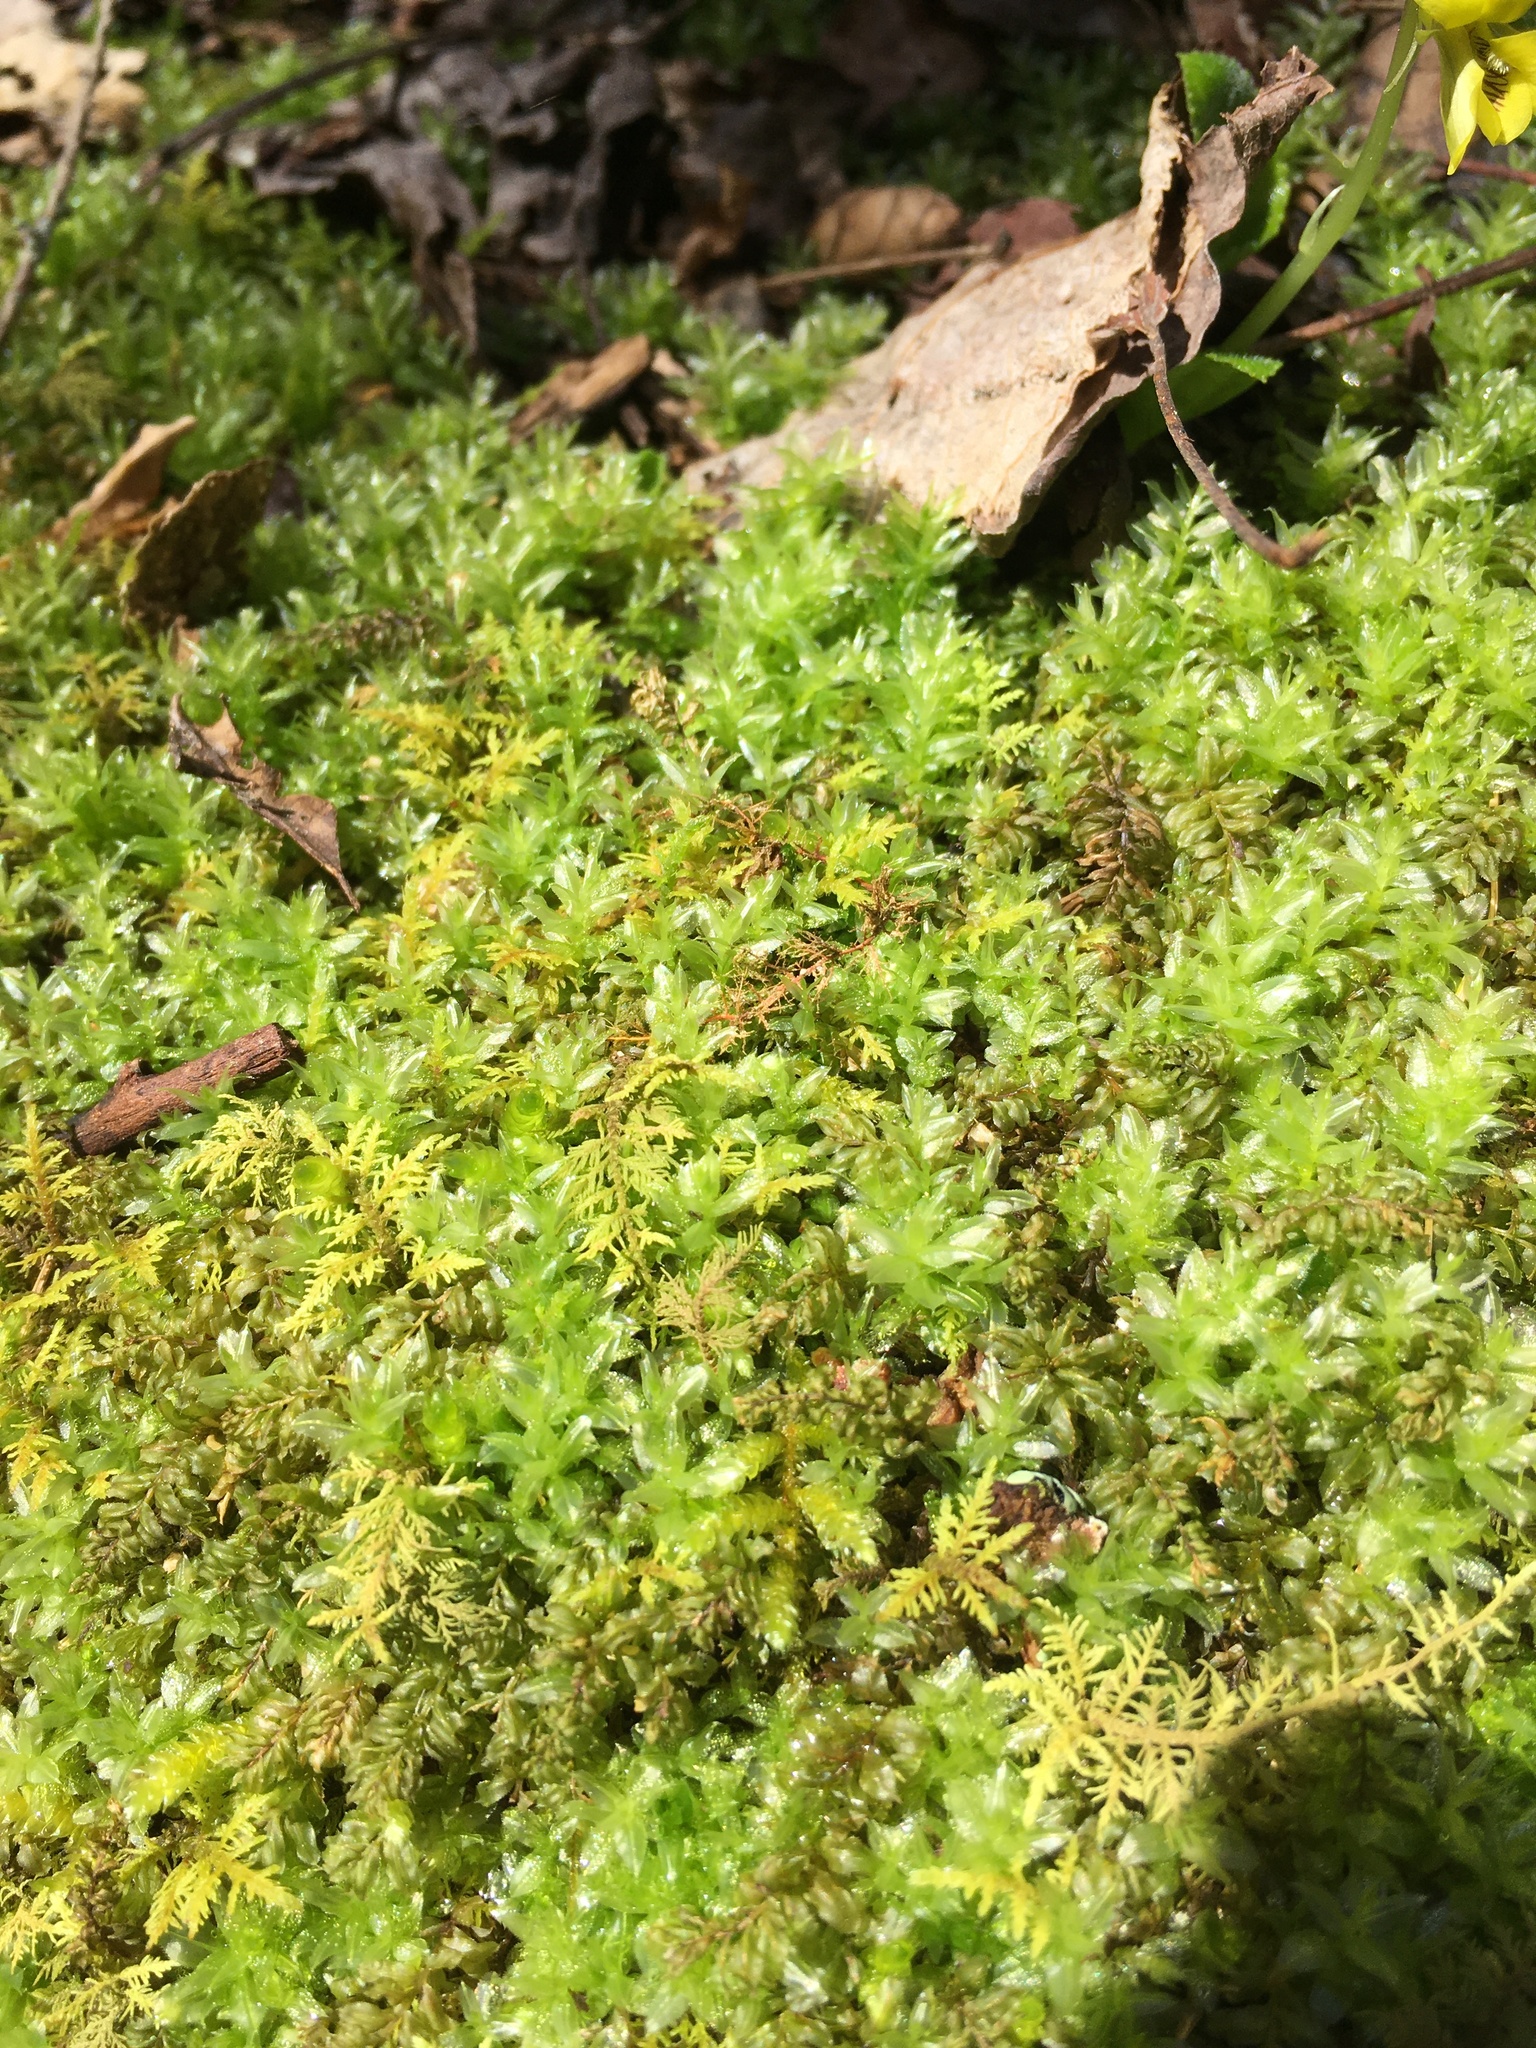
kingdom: Plantae
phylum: Bryophyta
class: Bryopsida
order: Bryales
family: Mniaceae
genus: Plagiomnium
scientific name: Plagiomnium ciliare
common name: Toothed leafy moss
